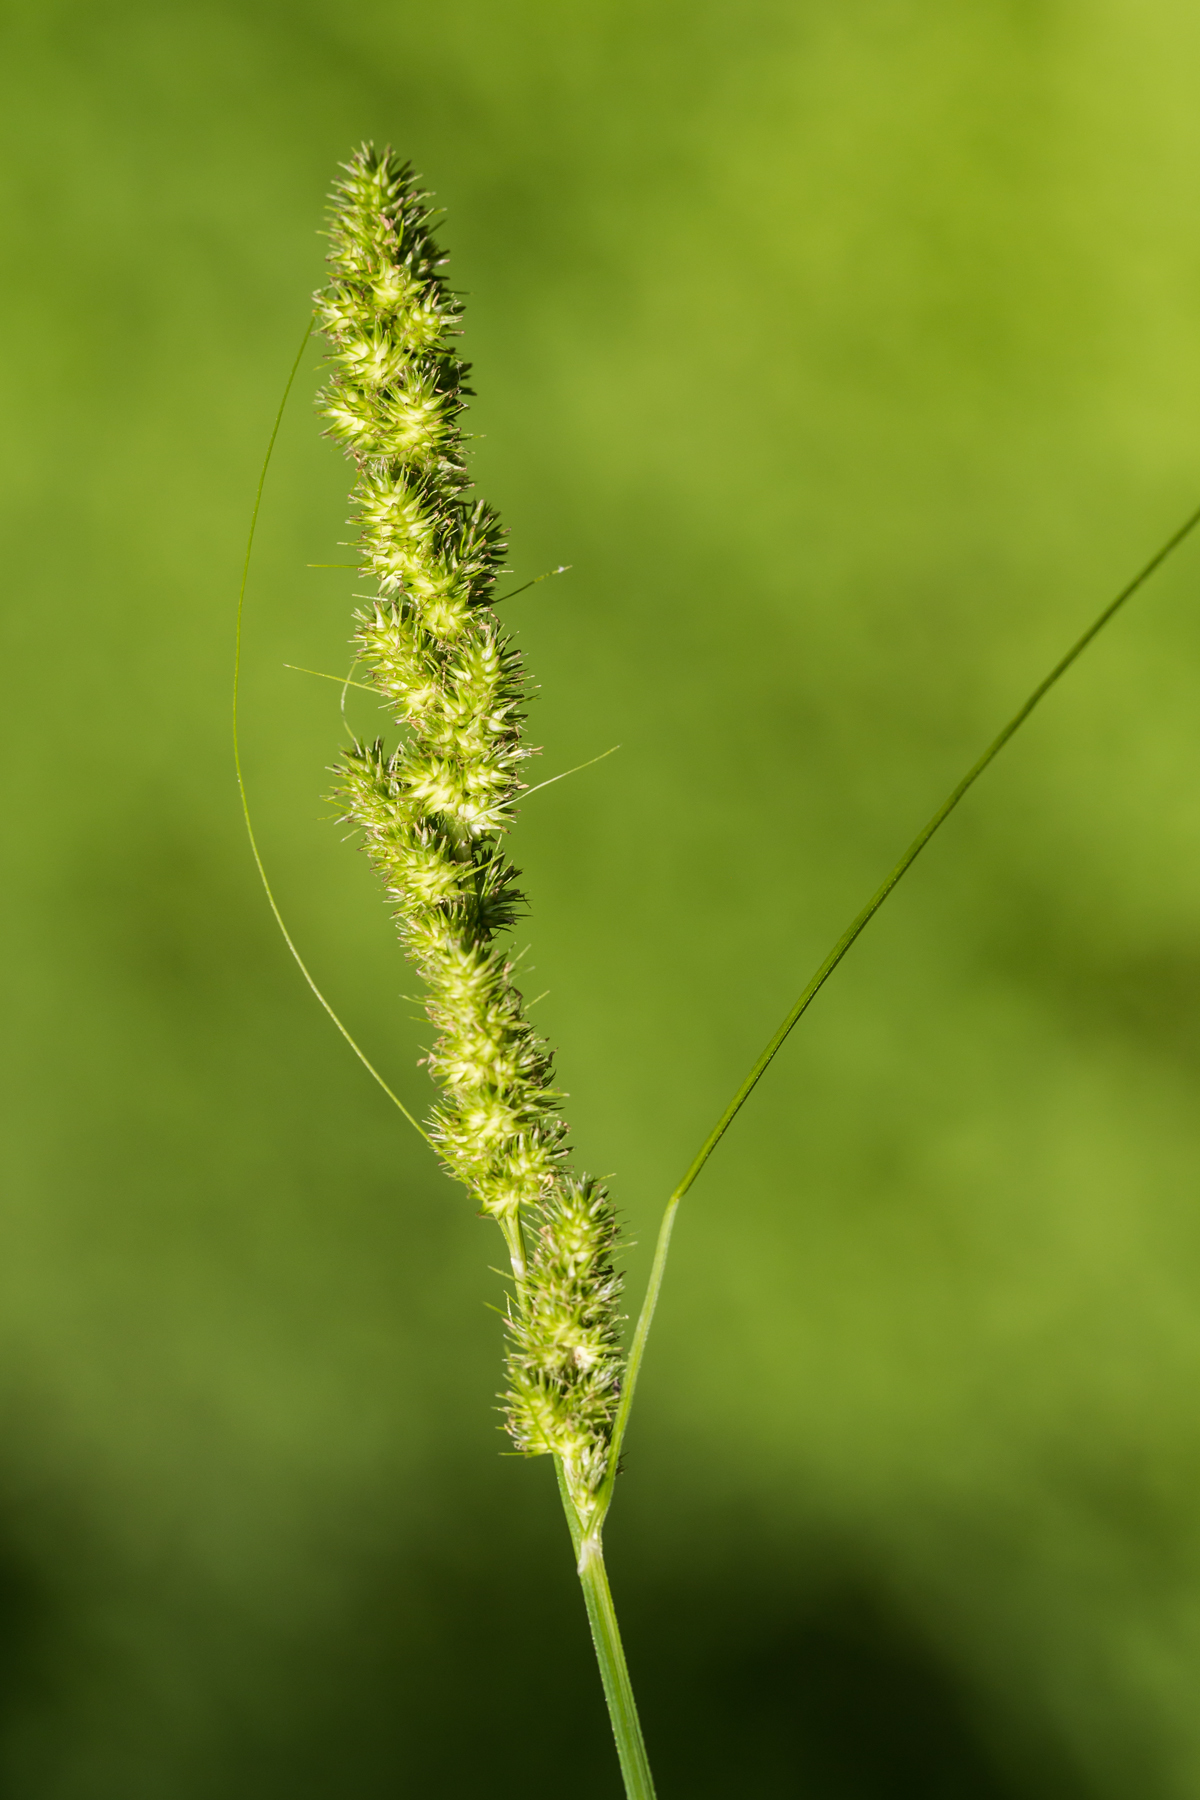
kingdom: Plantae
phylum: Tracheophyta
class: Liliopsida
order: Poales
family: Cyperaceae
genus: Carex
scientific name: Carex vulpinoidea
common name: American fox-sedge
